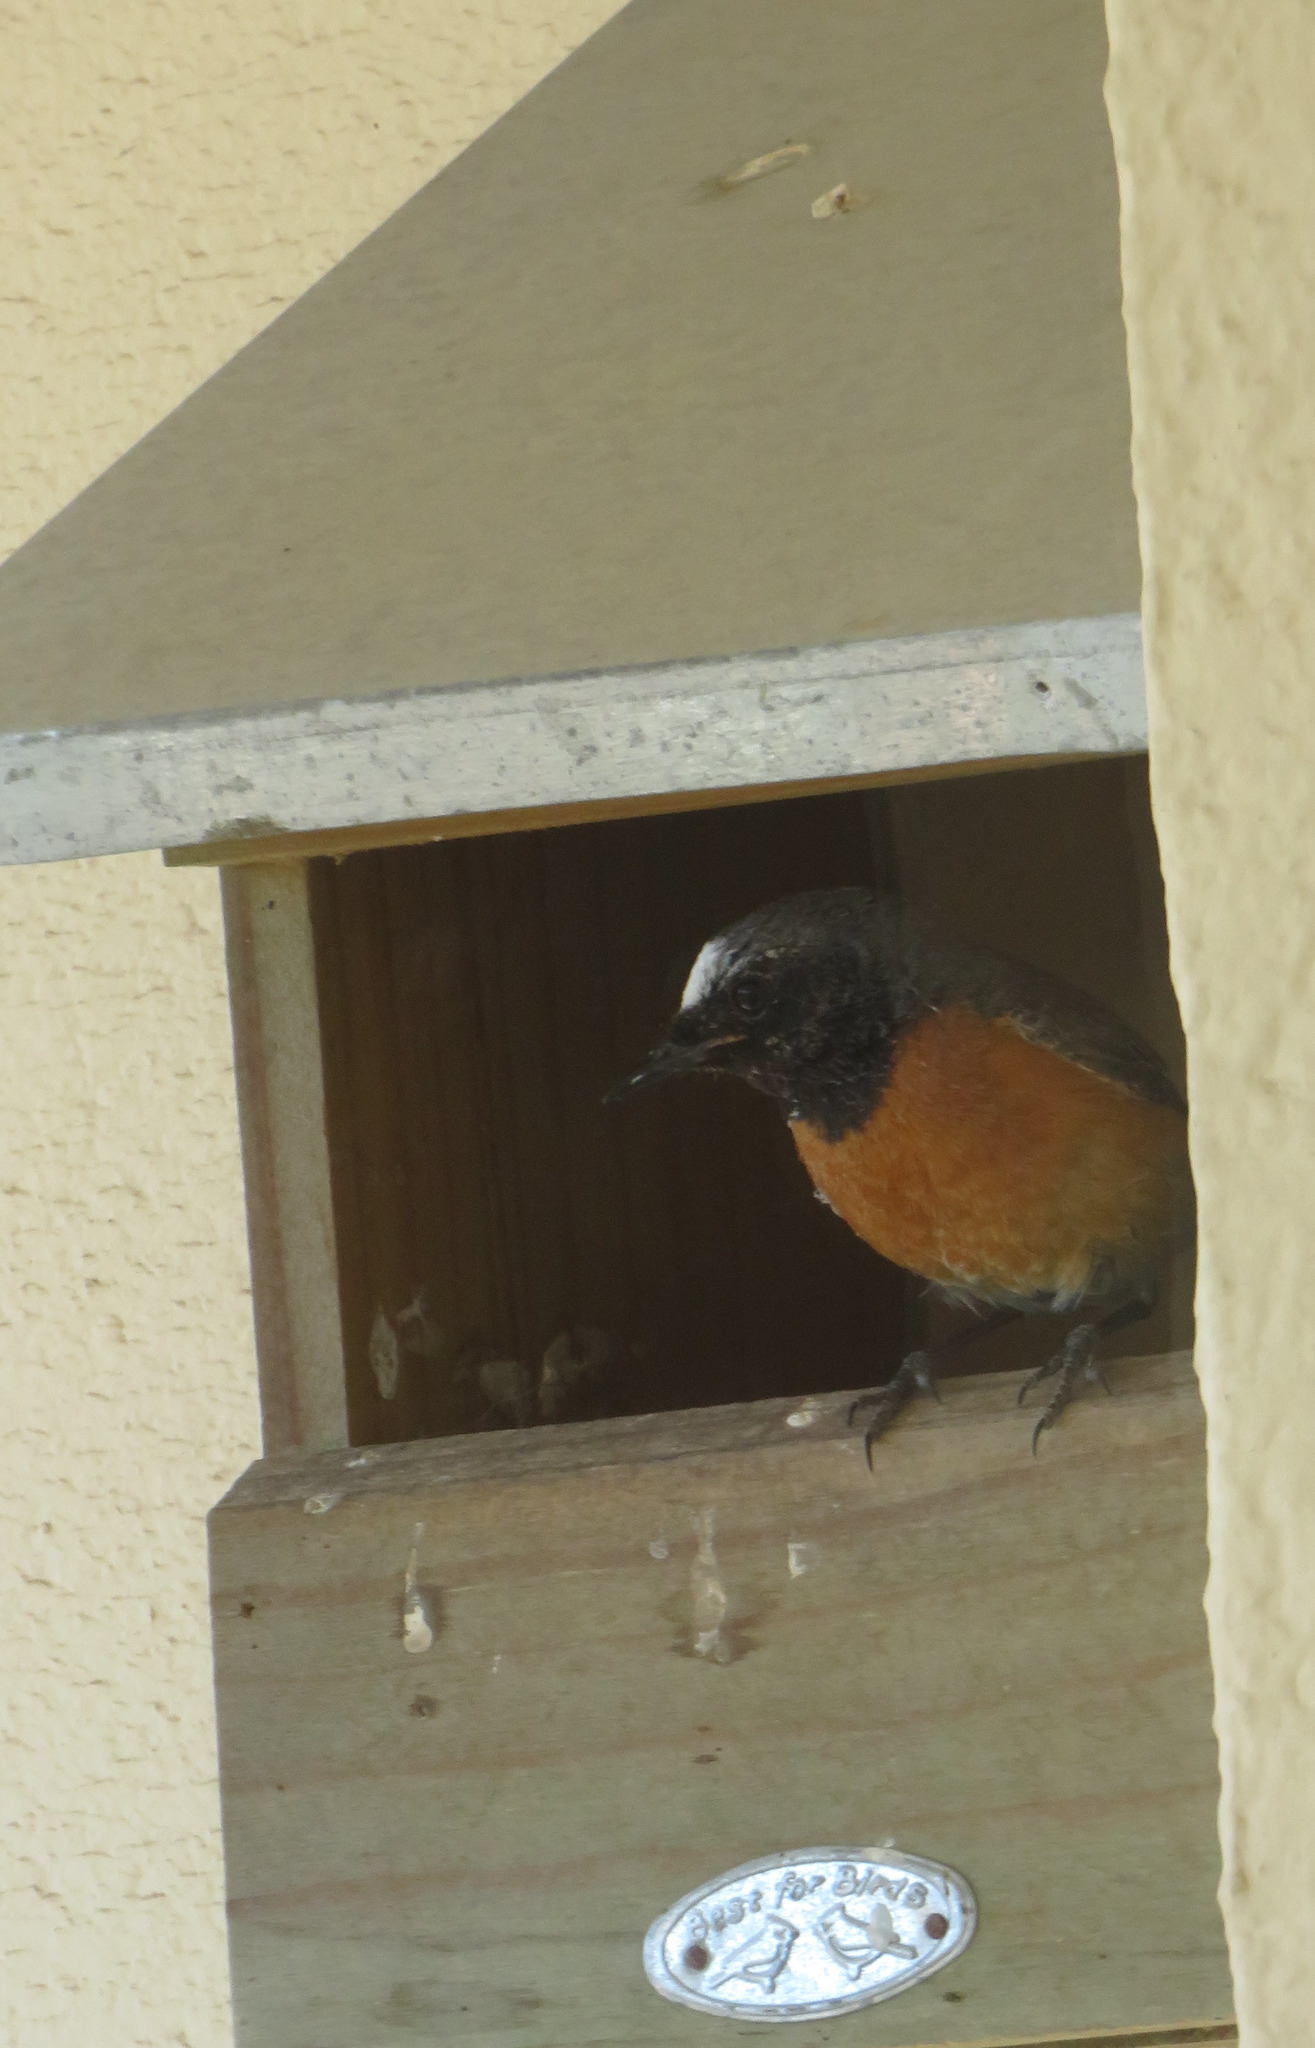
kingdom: Animalia
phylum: Chordata
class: Aves
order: Passeriformes
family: Muscicapidae
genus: Phoenicurus
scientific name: Phoenicurus phoenicurus
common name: Common redstart
